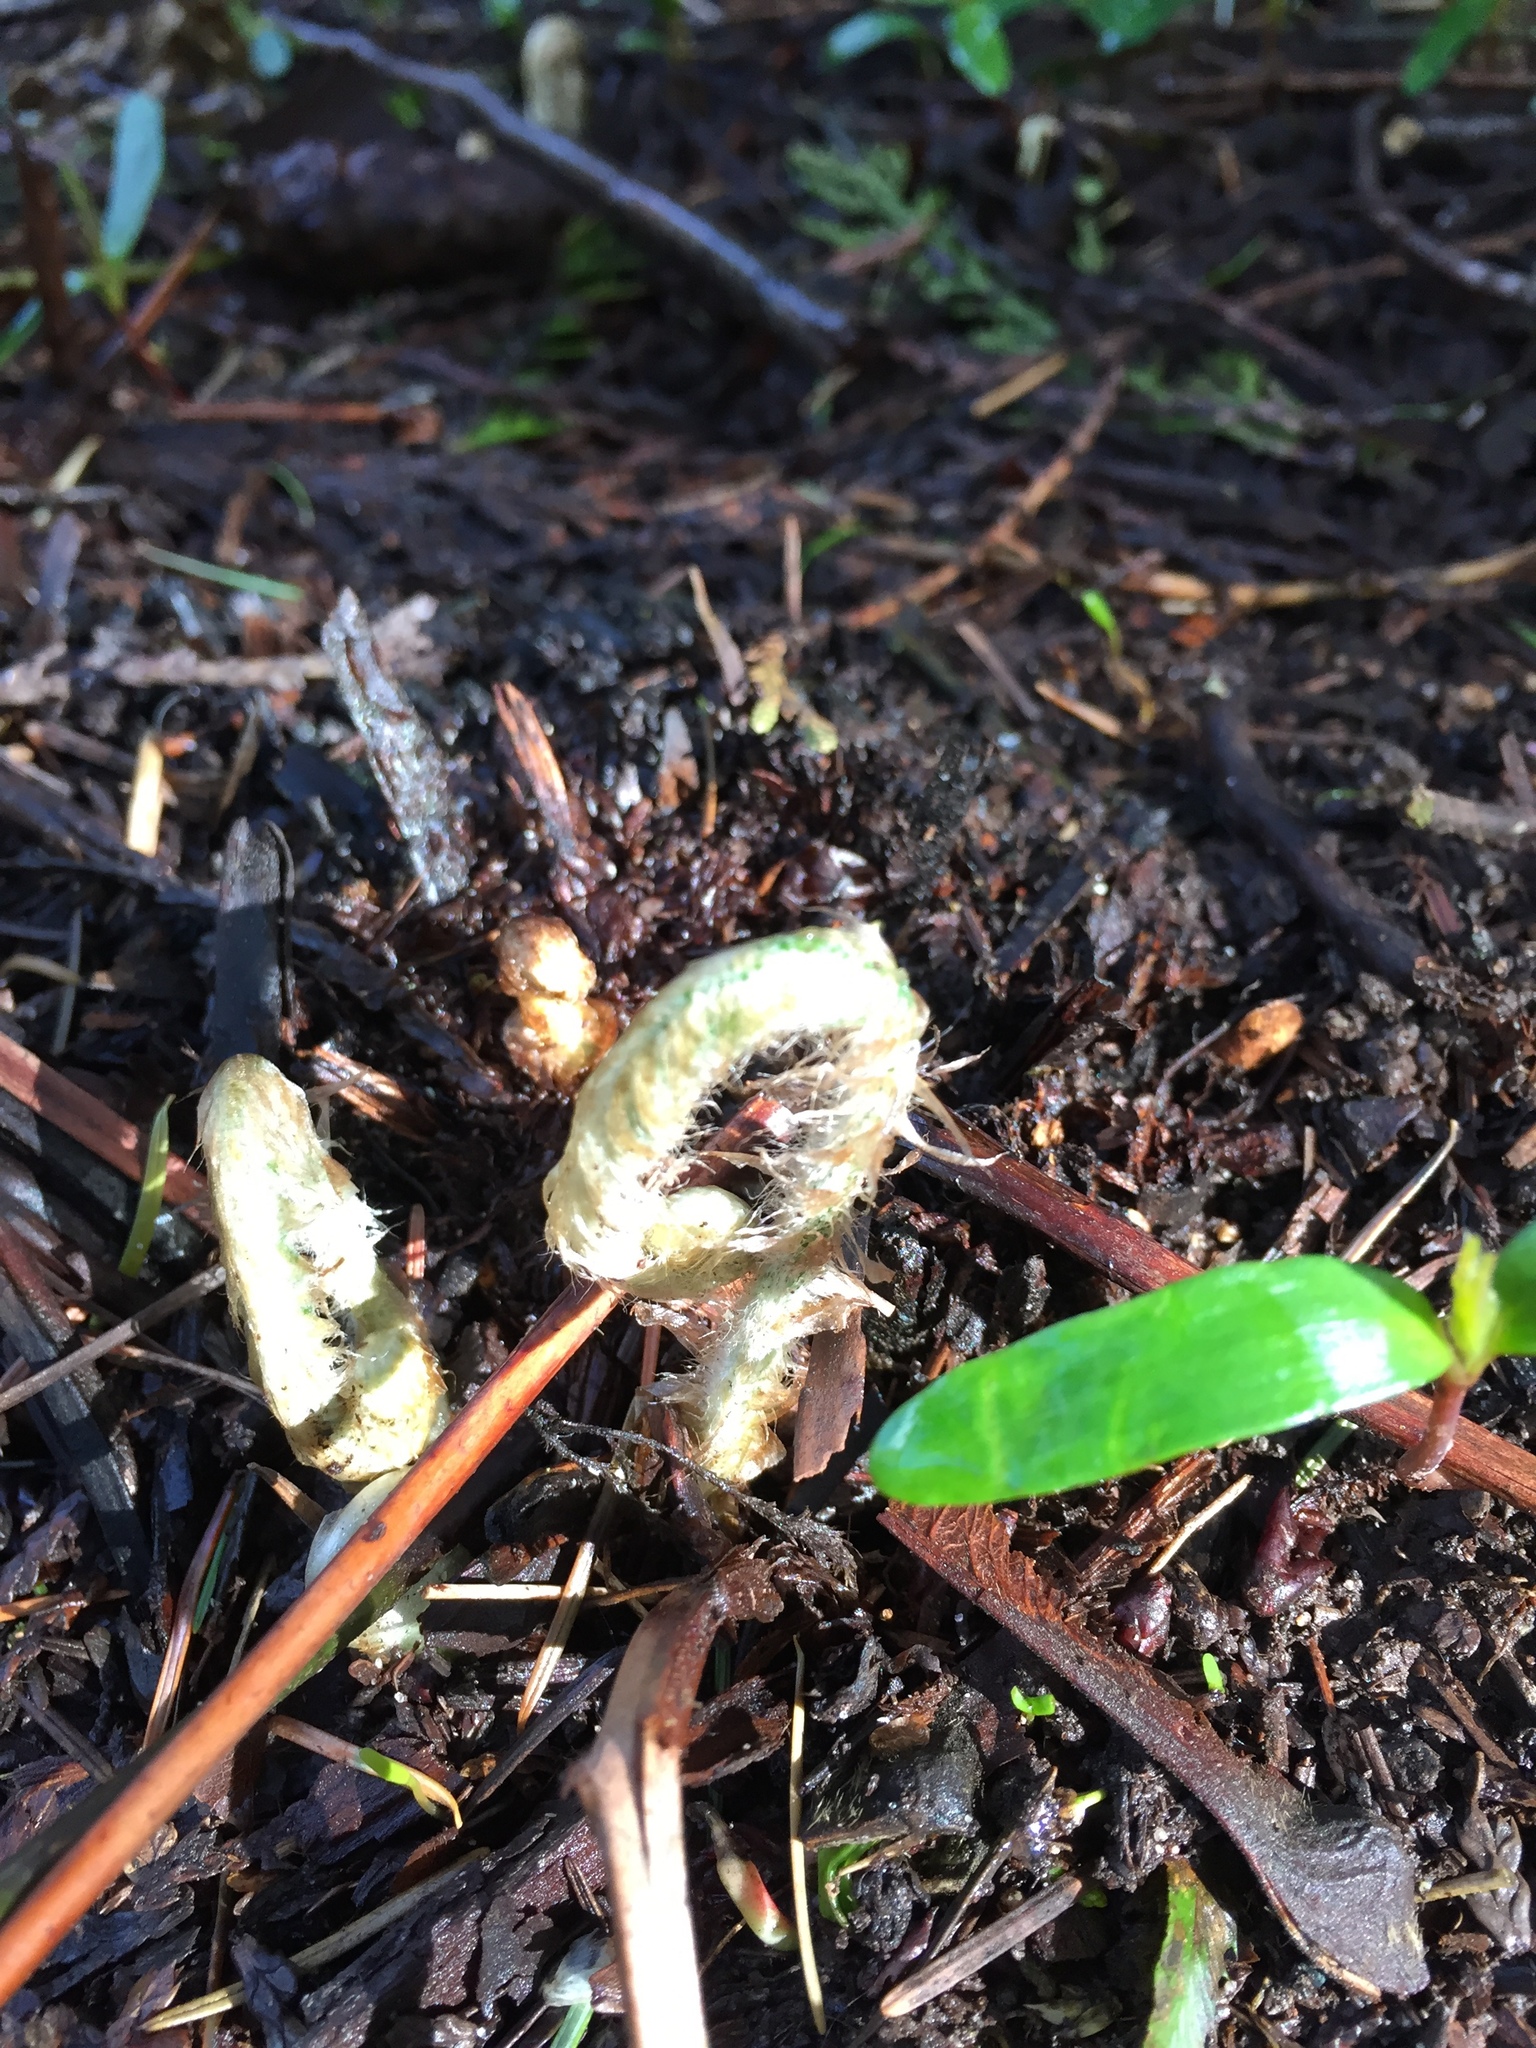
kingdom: Plantae
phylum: Tracheophyta
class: Polypodiopsida
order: Polypodiales
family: Dryopteridaceae
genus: Polystichum
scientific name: Polystichum munitum
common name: Western sword-fern
